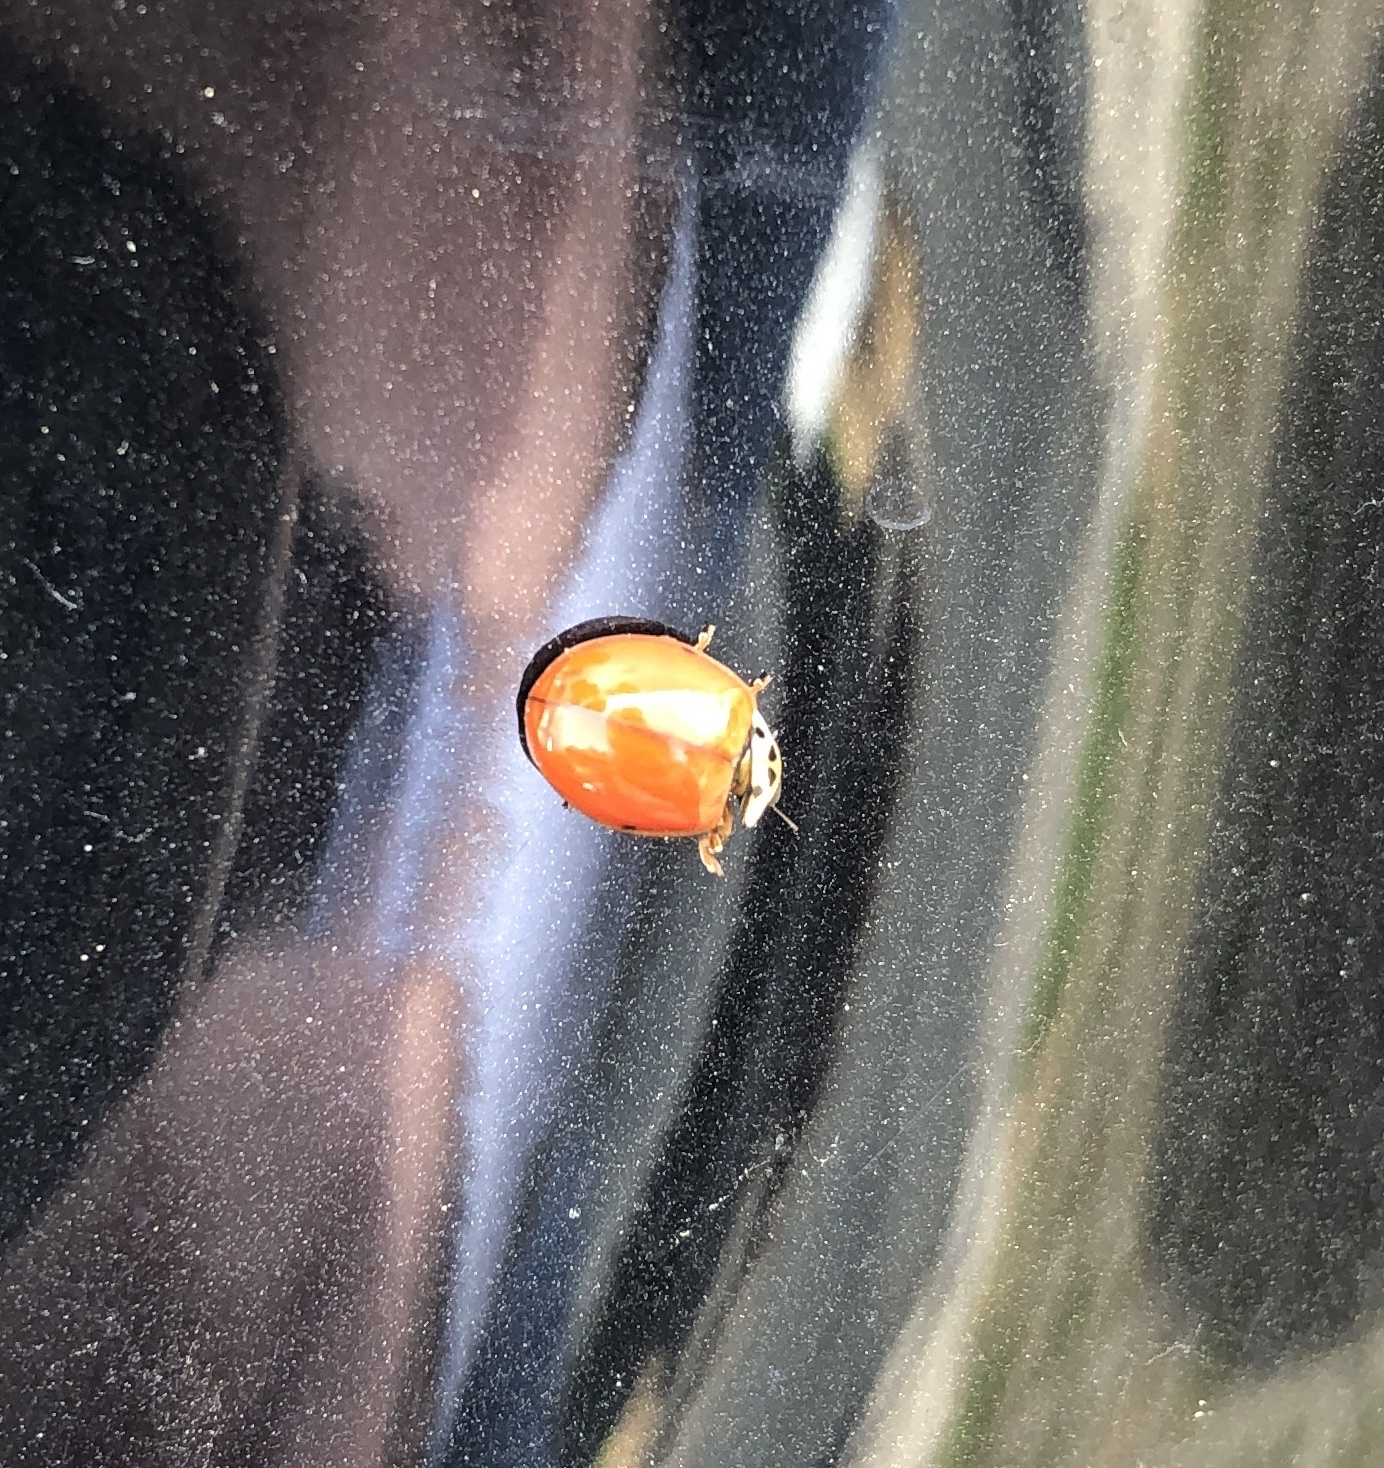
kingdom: Animalia
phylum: Arthropoda
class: Insecta
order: Coleoptera
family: Coccinellidae
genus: Harmonia
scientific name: Harmonia axyridis
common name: Harlequin ladybird
